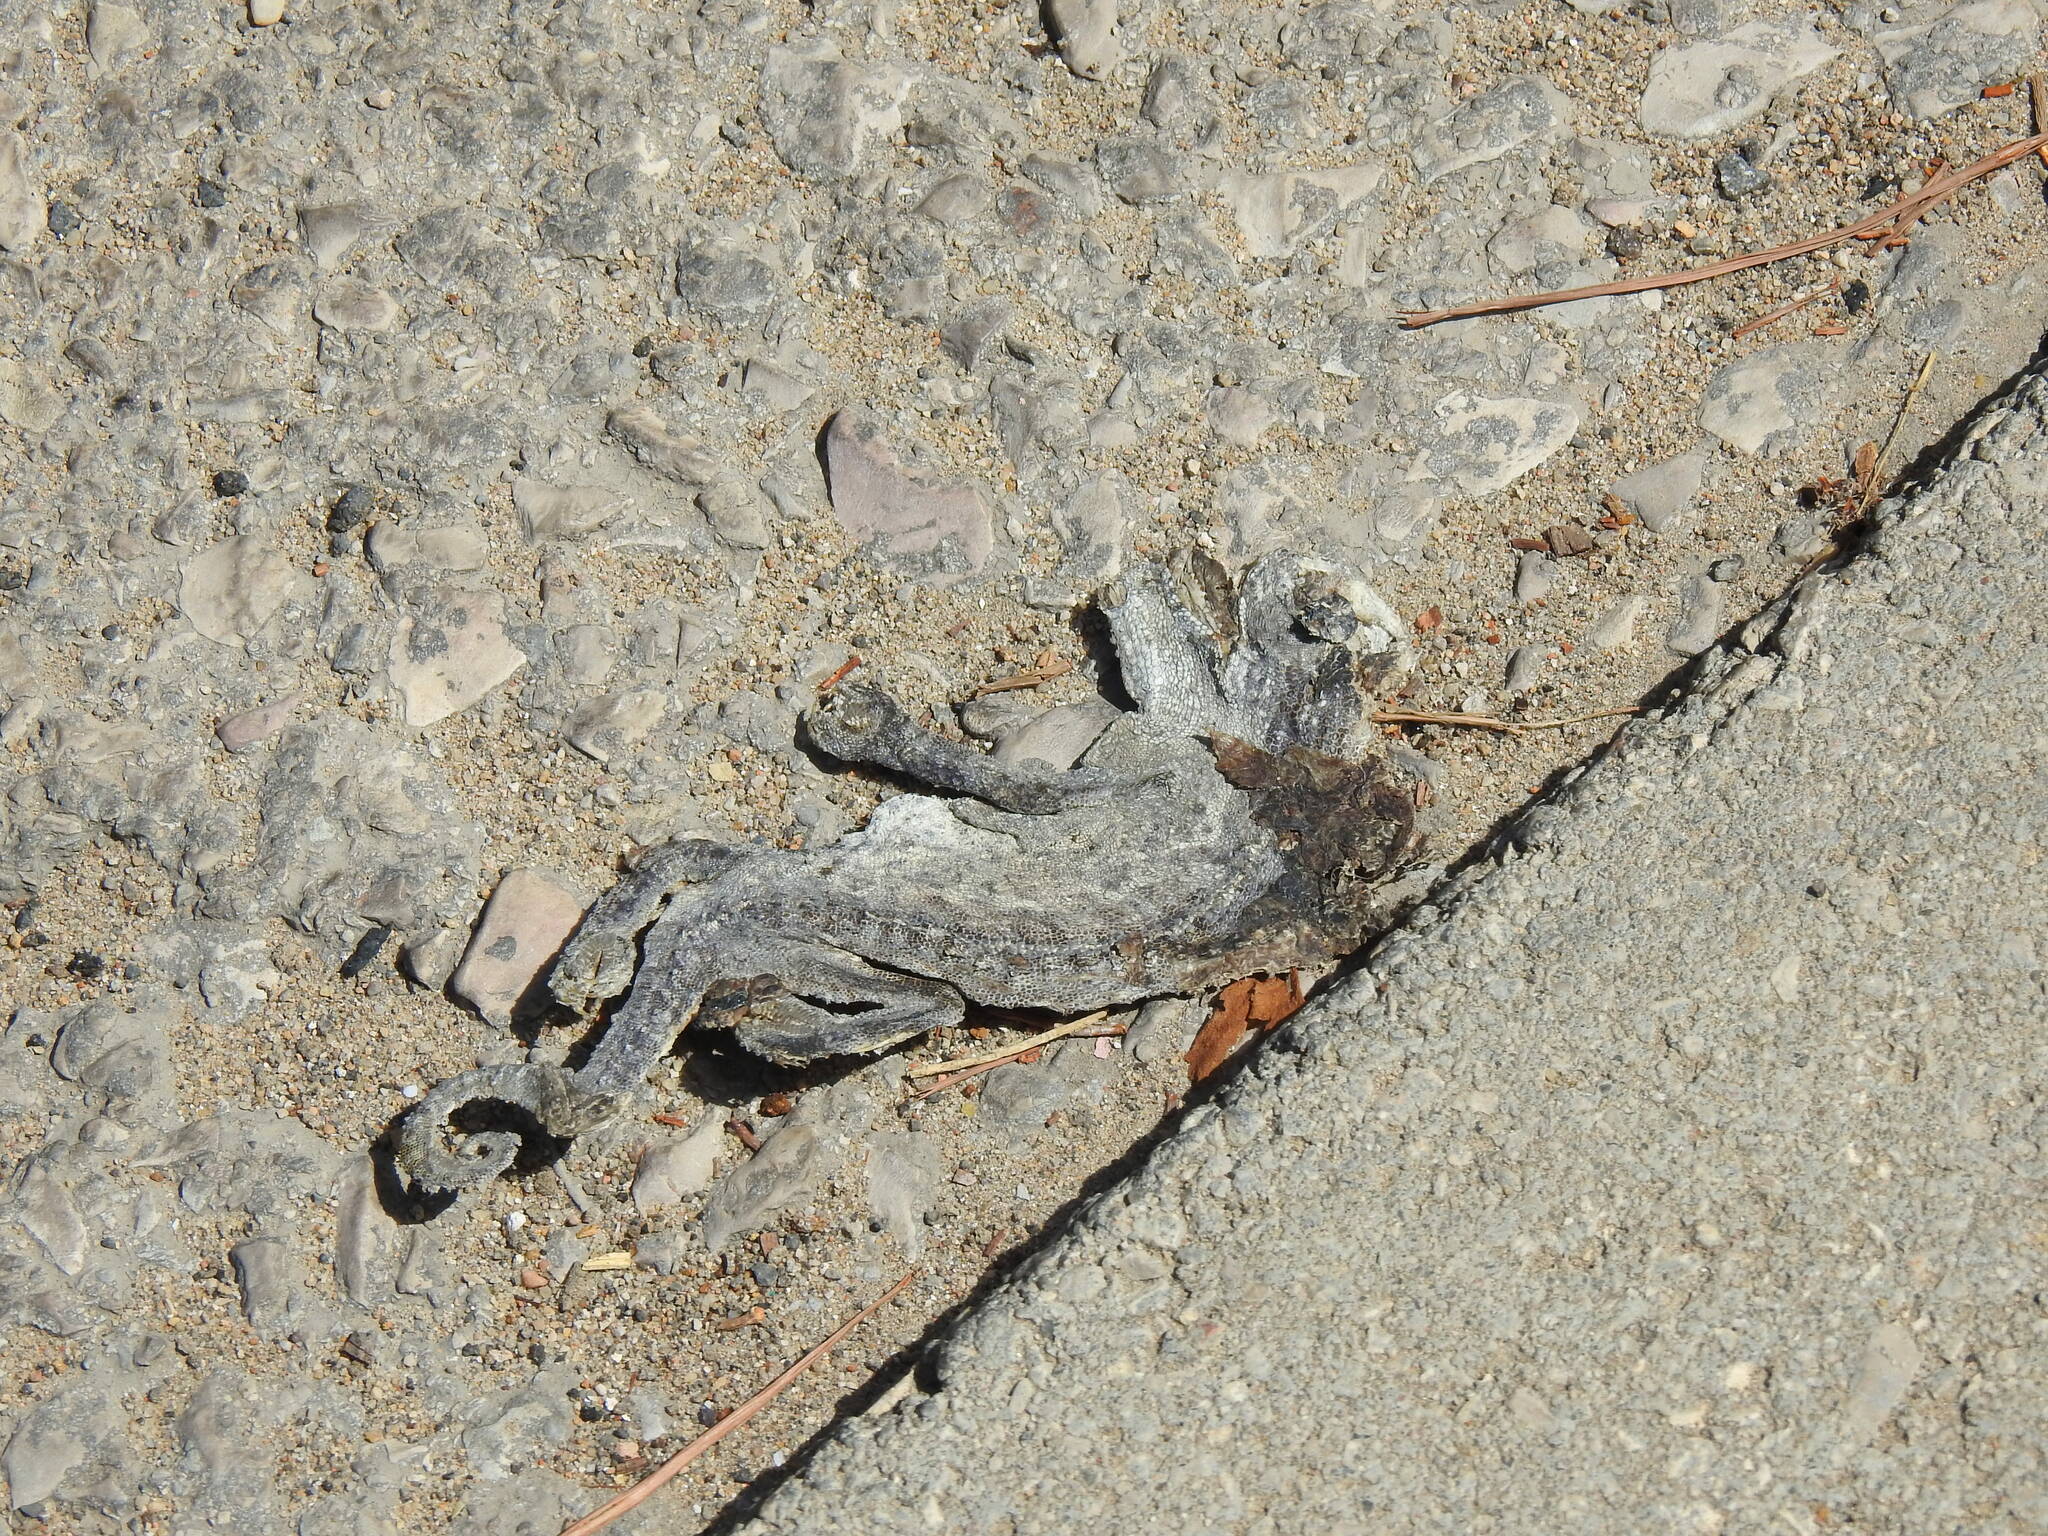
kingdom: Animalia
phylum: Chordata
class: Squamata
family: Chamaeleonidae
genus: Chamaeleo
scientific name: Chamaeleo chamaeleon
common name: Mediterranean chameleon
